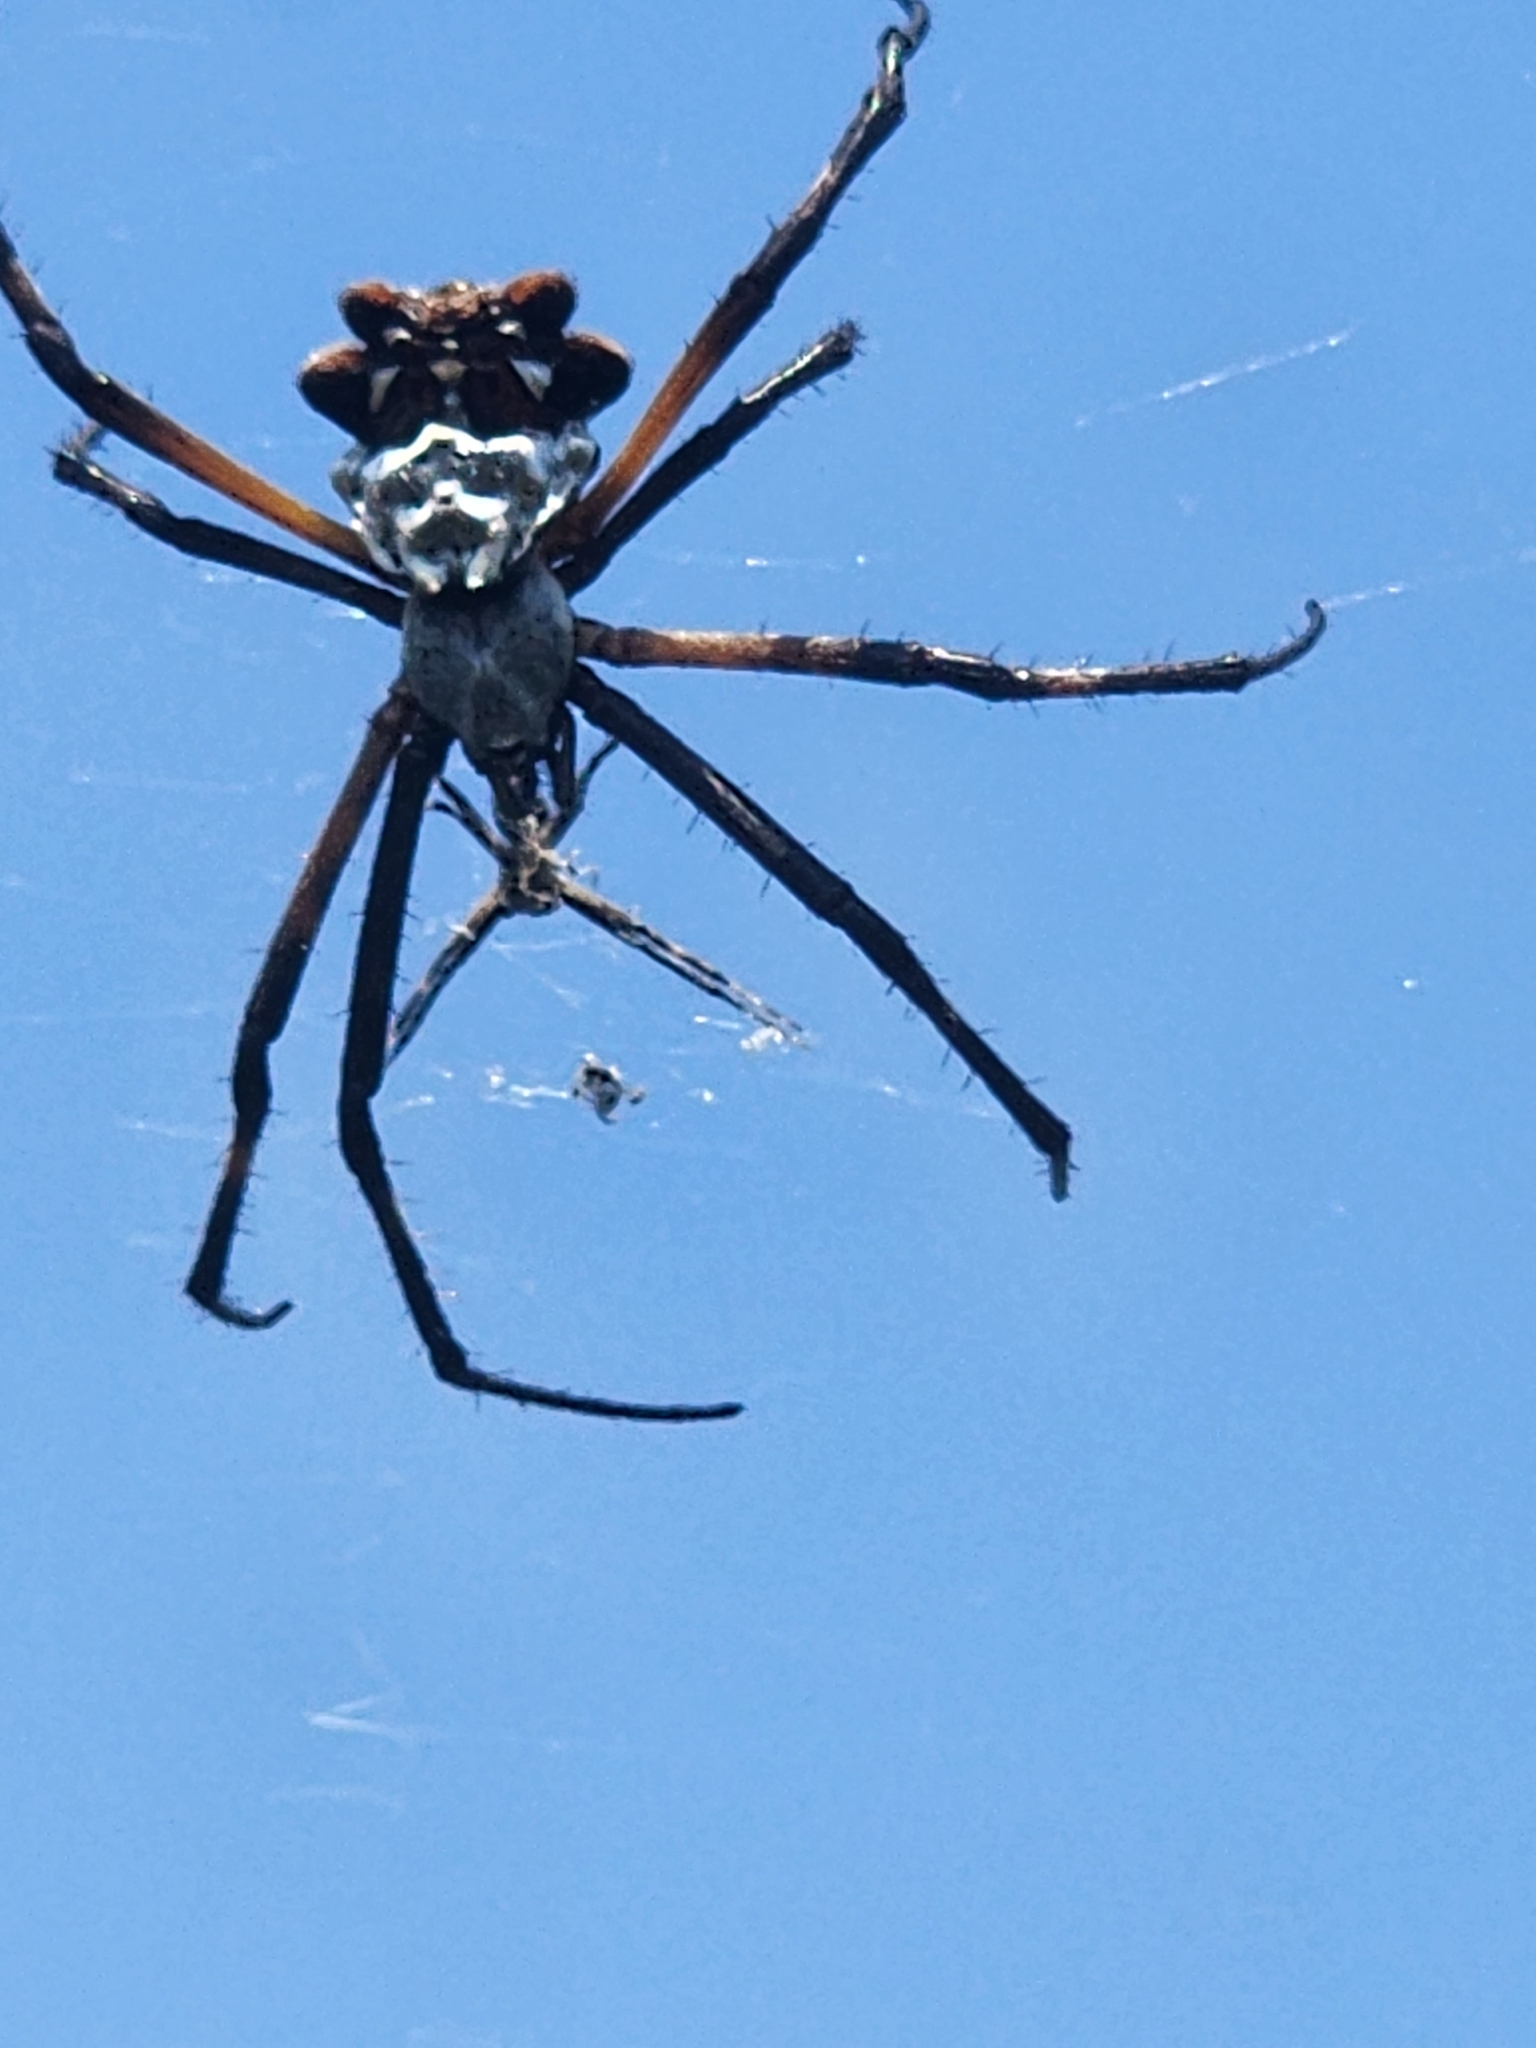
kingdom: Animalia
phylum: Arthropoda
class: Arachnida
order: Araneae
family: Araneidae
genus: Argiope
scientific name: Argiope argentata
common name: Orb weavers
